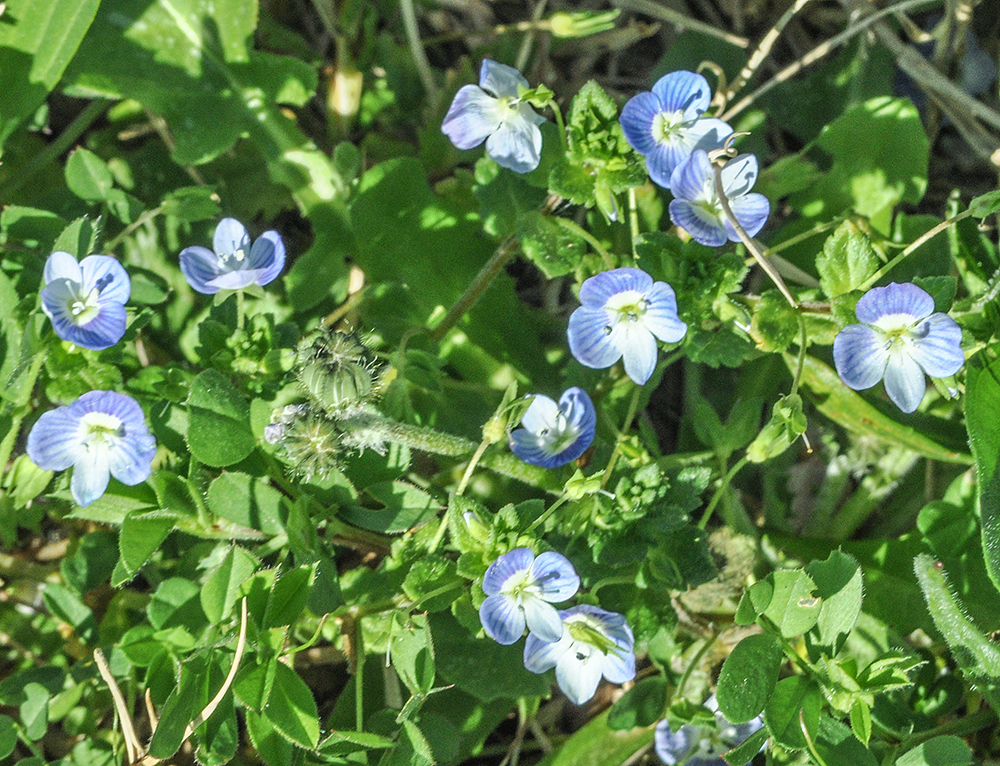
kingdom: Plantae
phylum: Tracheophyta
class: Magnoliopsida
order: Lamiales
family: Plantaginaceae
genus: Veronica
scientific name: Veronica persica
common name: Common field-speedwell
